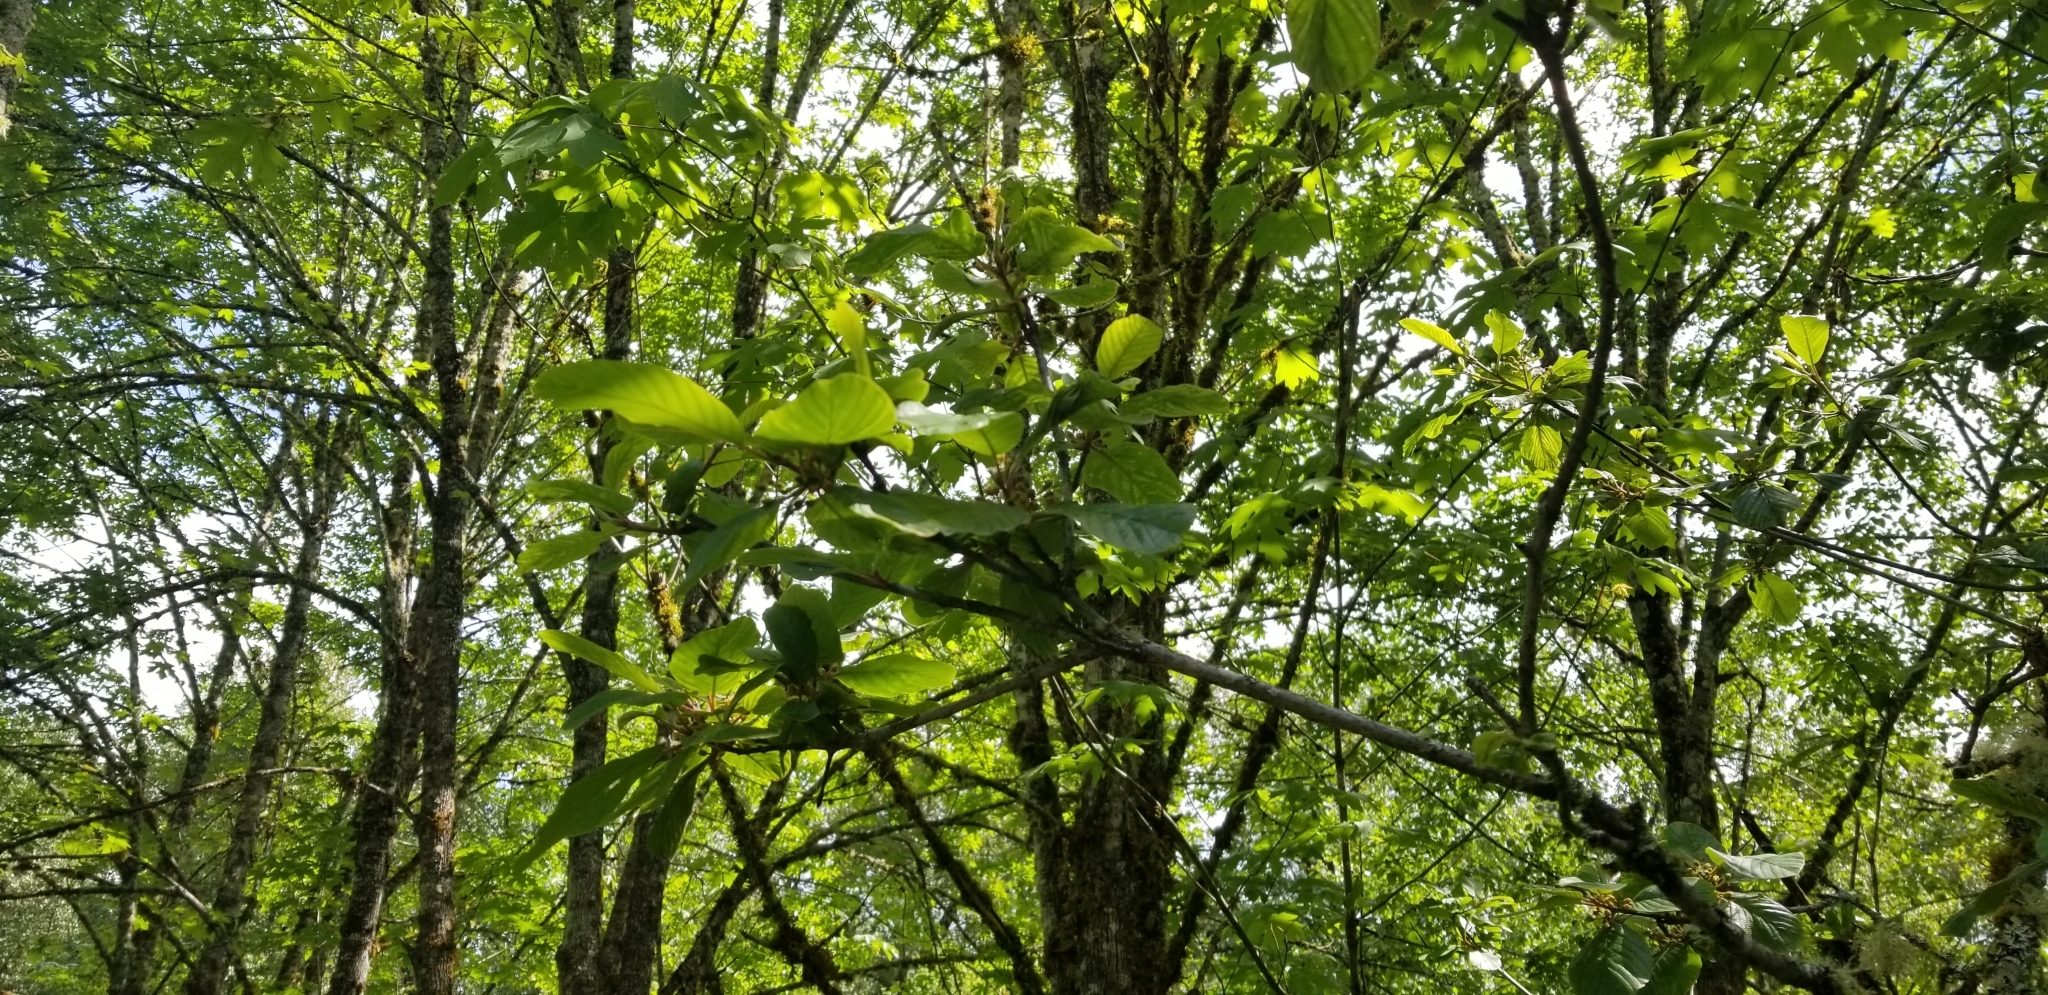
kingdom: Plantae
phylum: Tracheophyta
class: Magnoliopsida
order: Rosales
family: Rhamnaceae
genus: Frangula
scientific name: Frangula purshiana
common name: Cascara buckthorn
